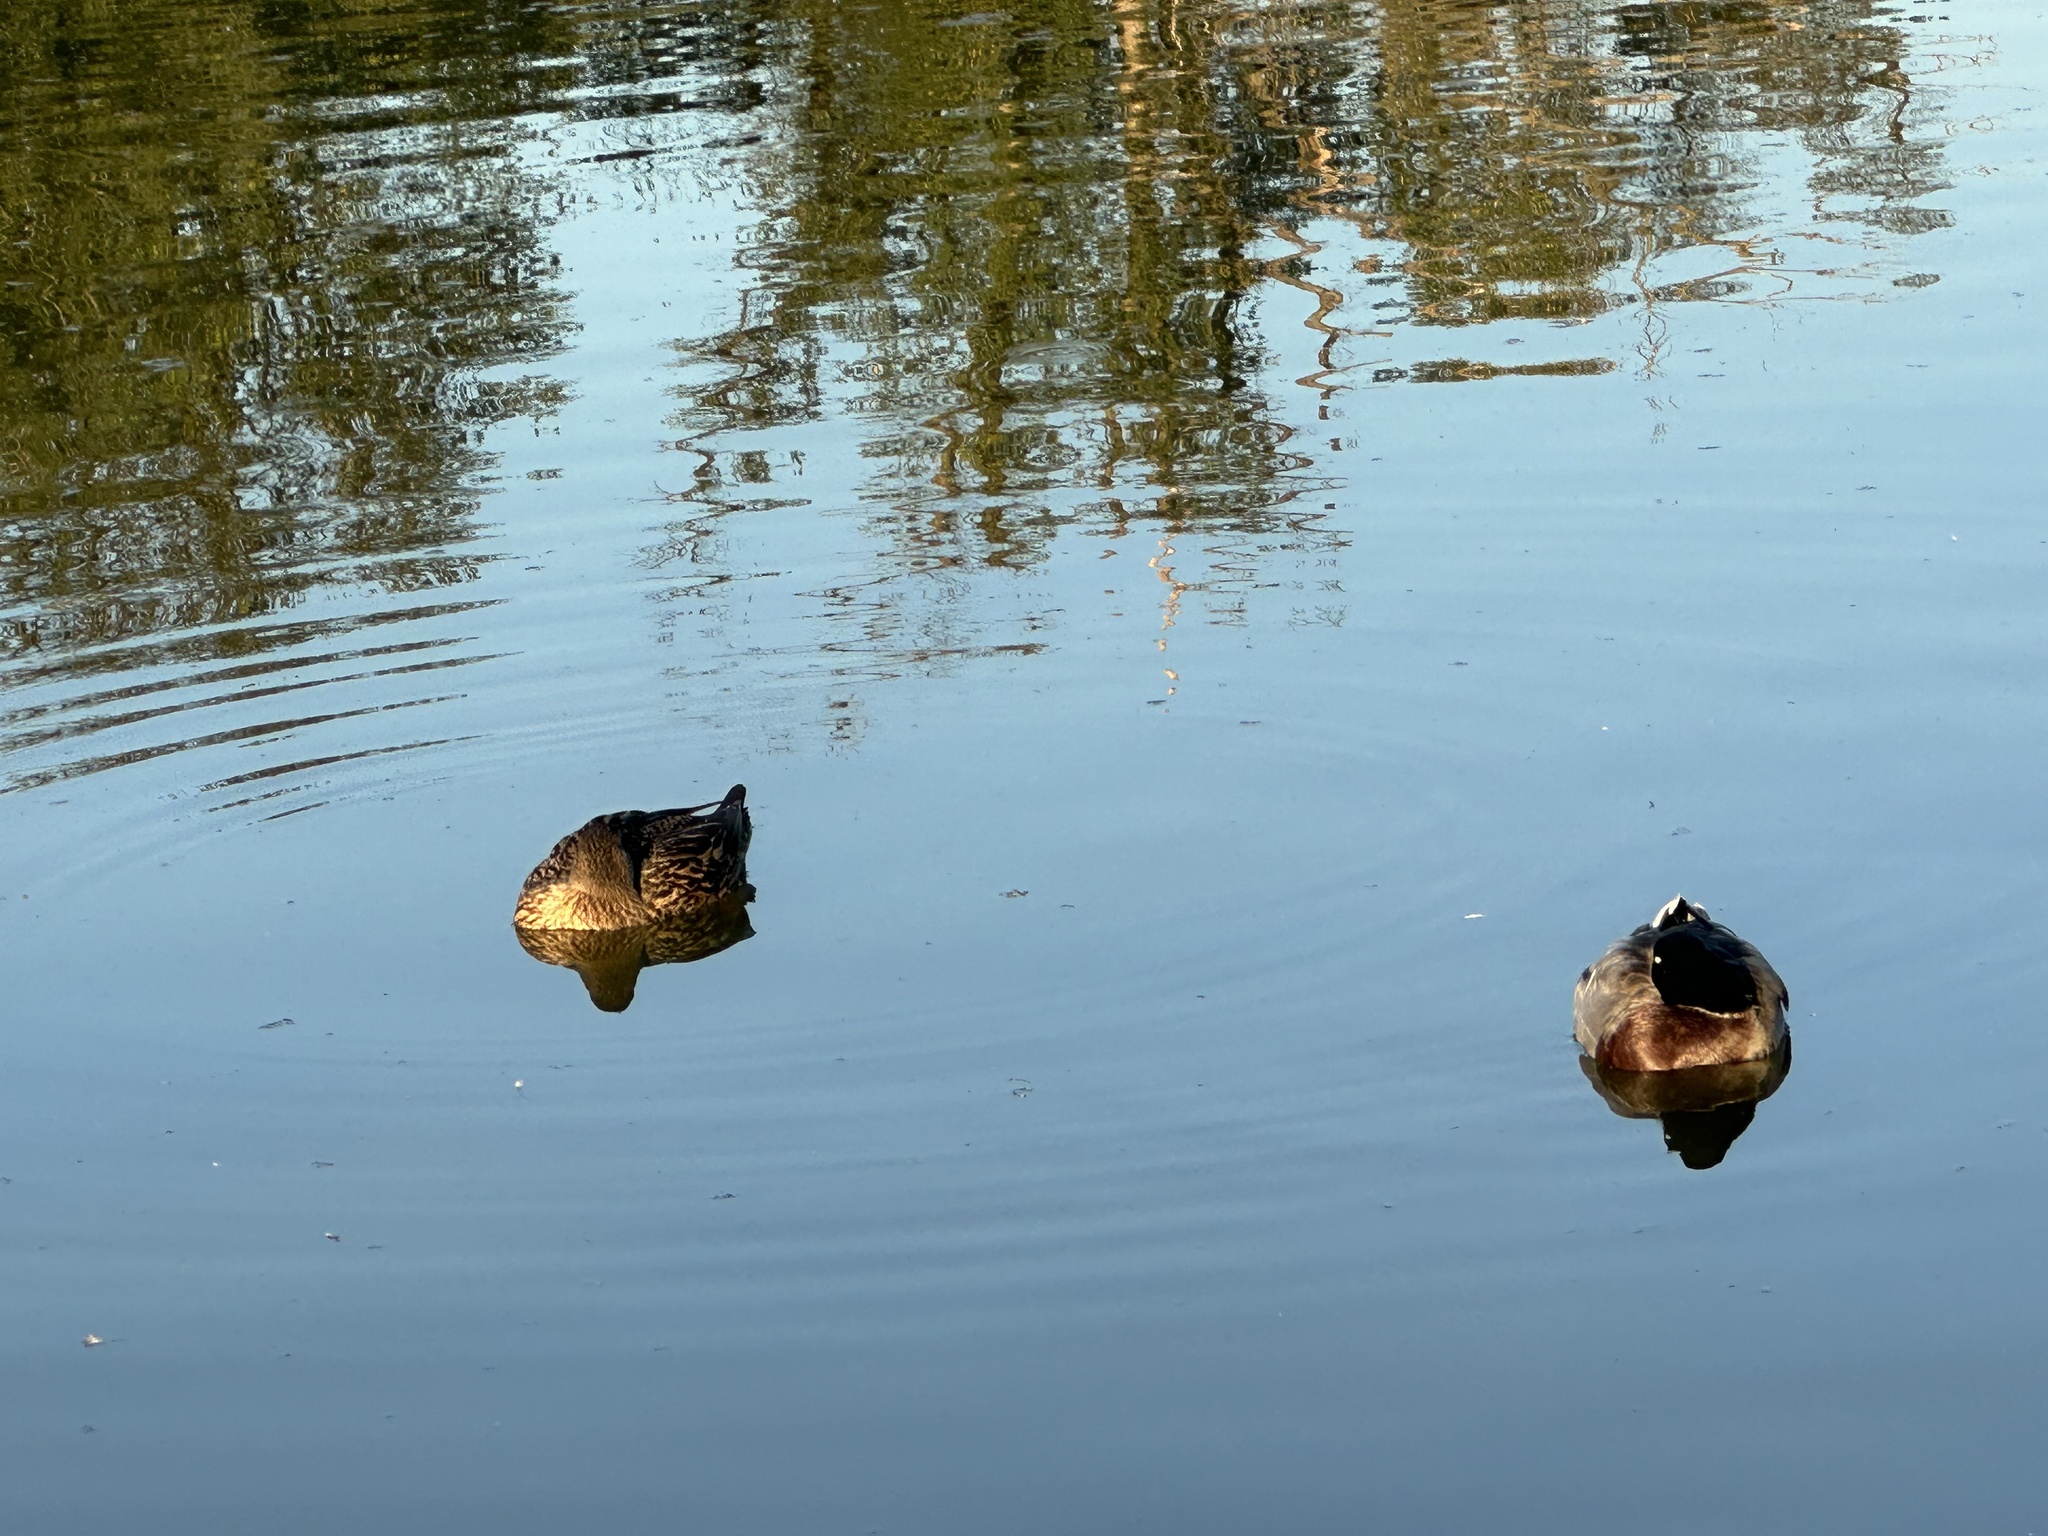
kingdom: Animalia
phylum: Chordata
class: Aves
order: Anseriformes
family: Anatidae
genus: Anas
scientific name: Anas platyrhynchos
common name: Mallard
